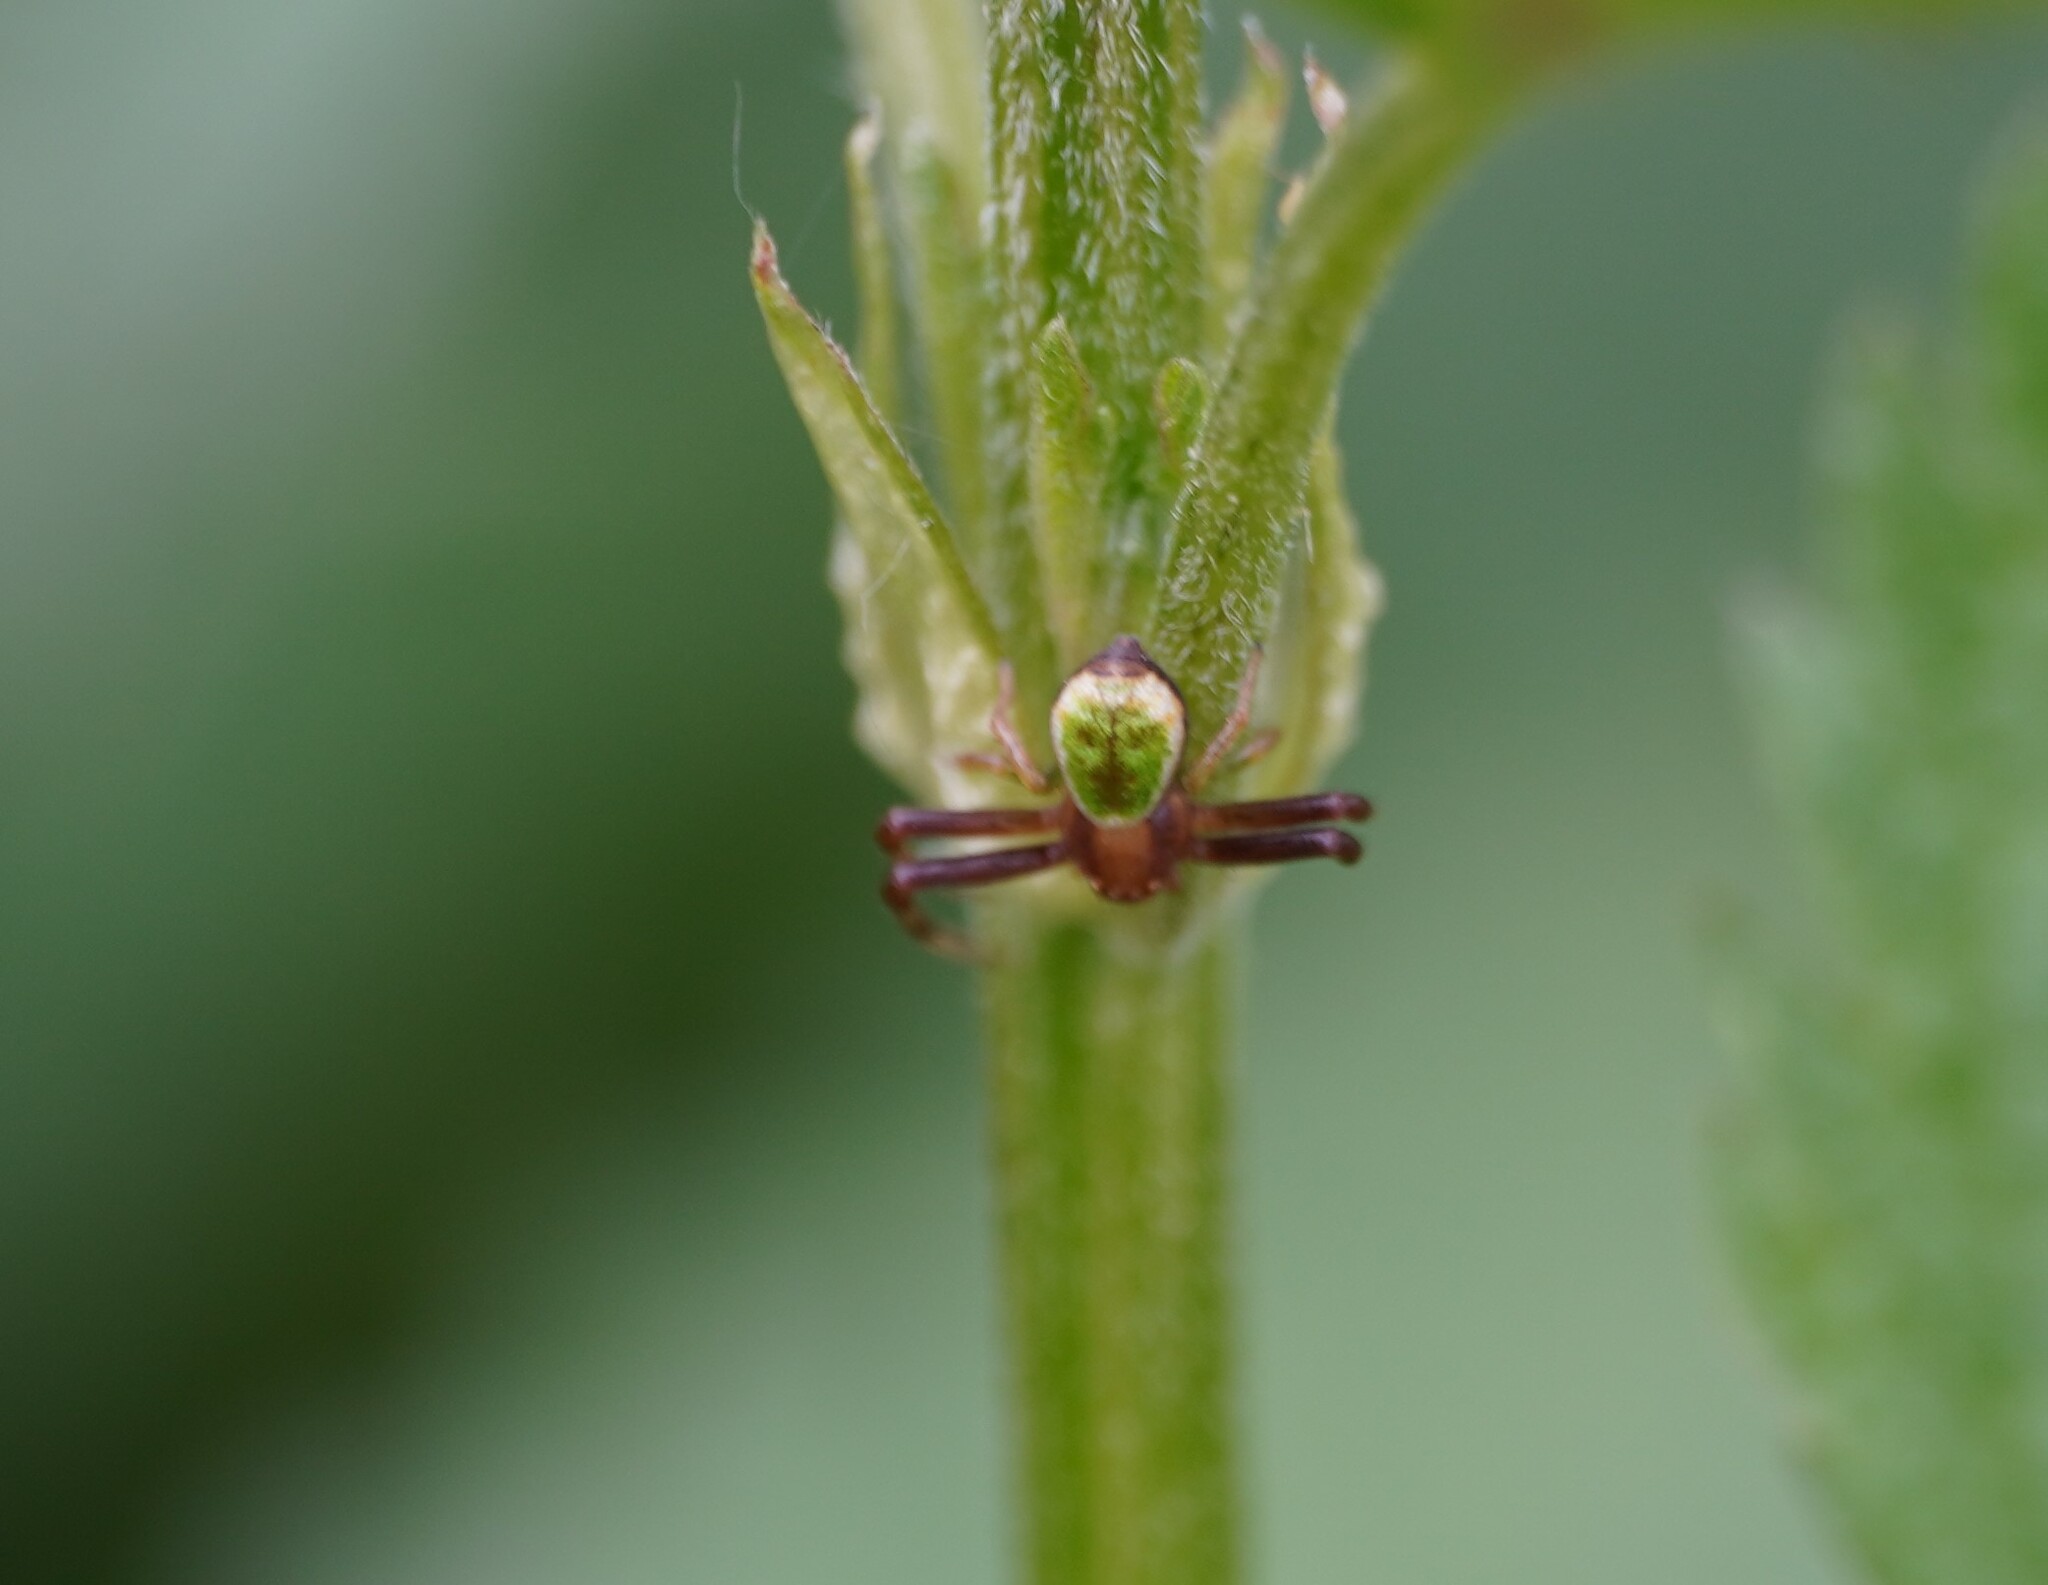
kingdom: Animalia
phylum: Arthropoda
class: Arachnida
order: Araneae
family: Thomisidae
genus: Ebrechtella
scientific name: Ebrechtella tricuspidata
